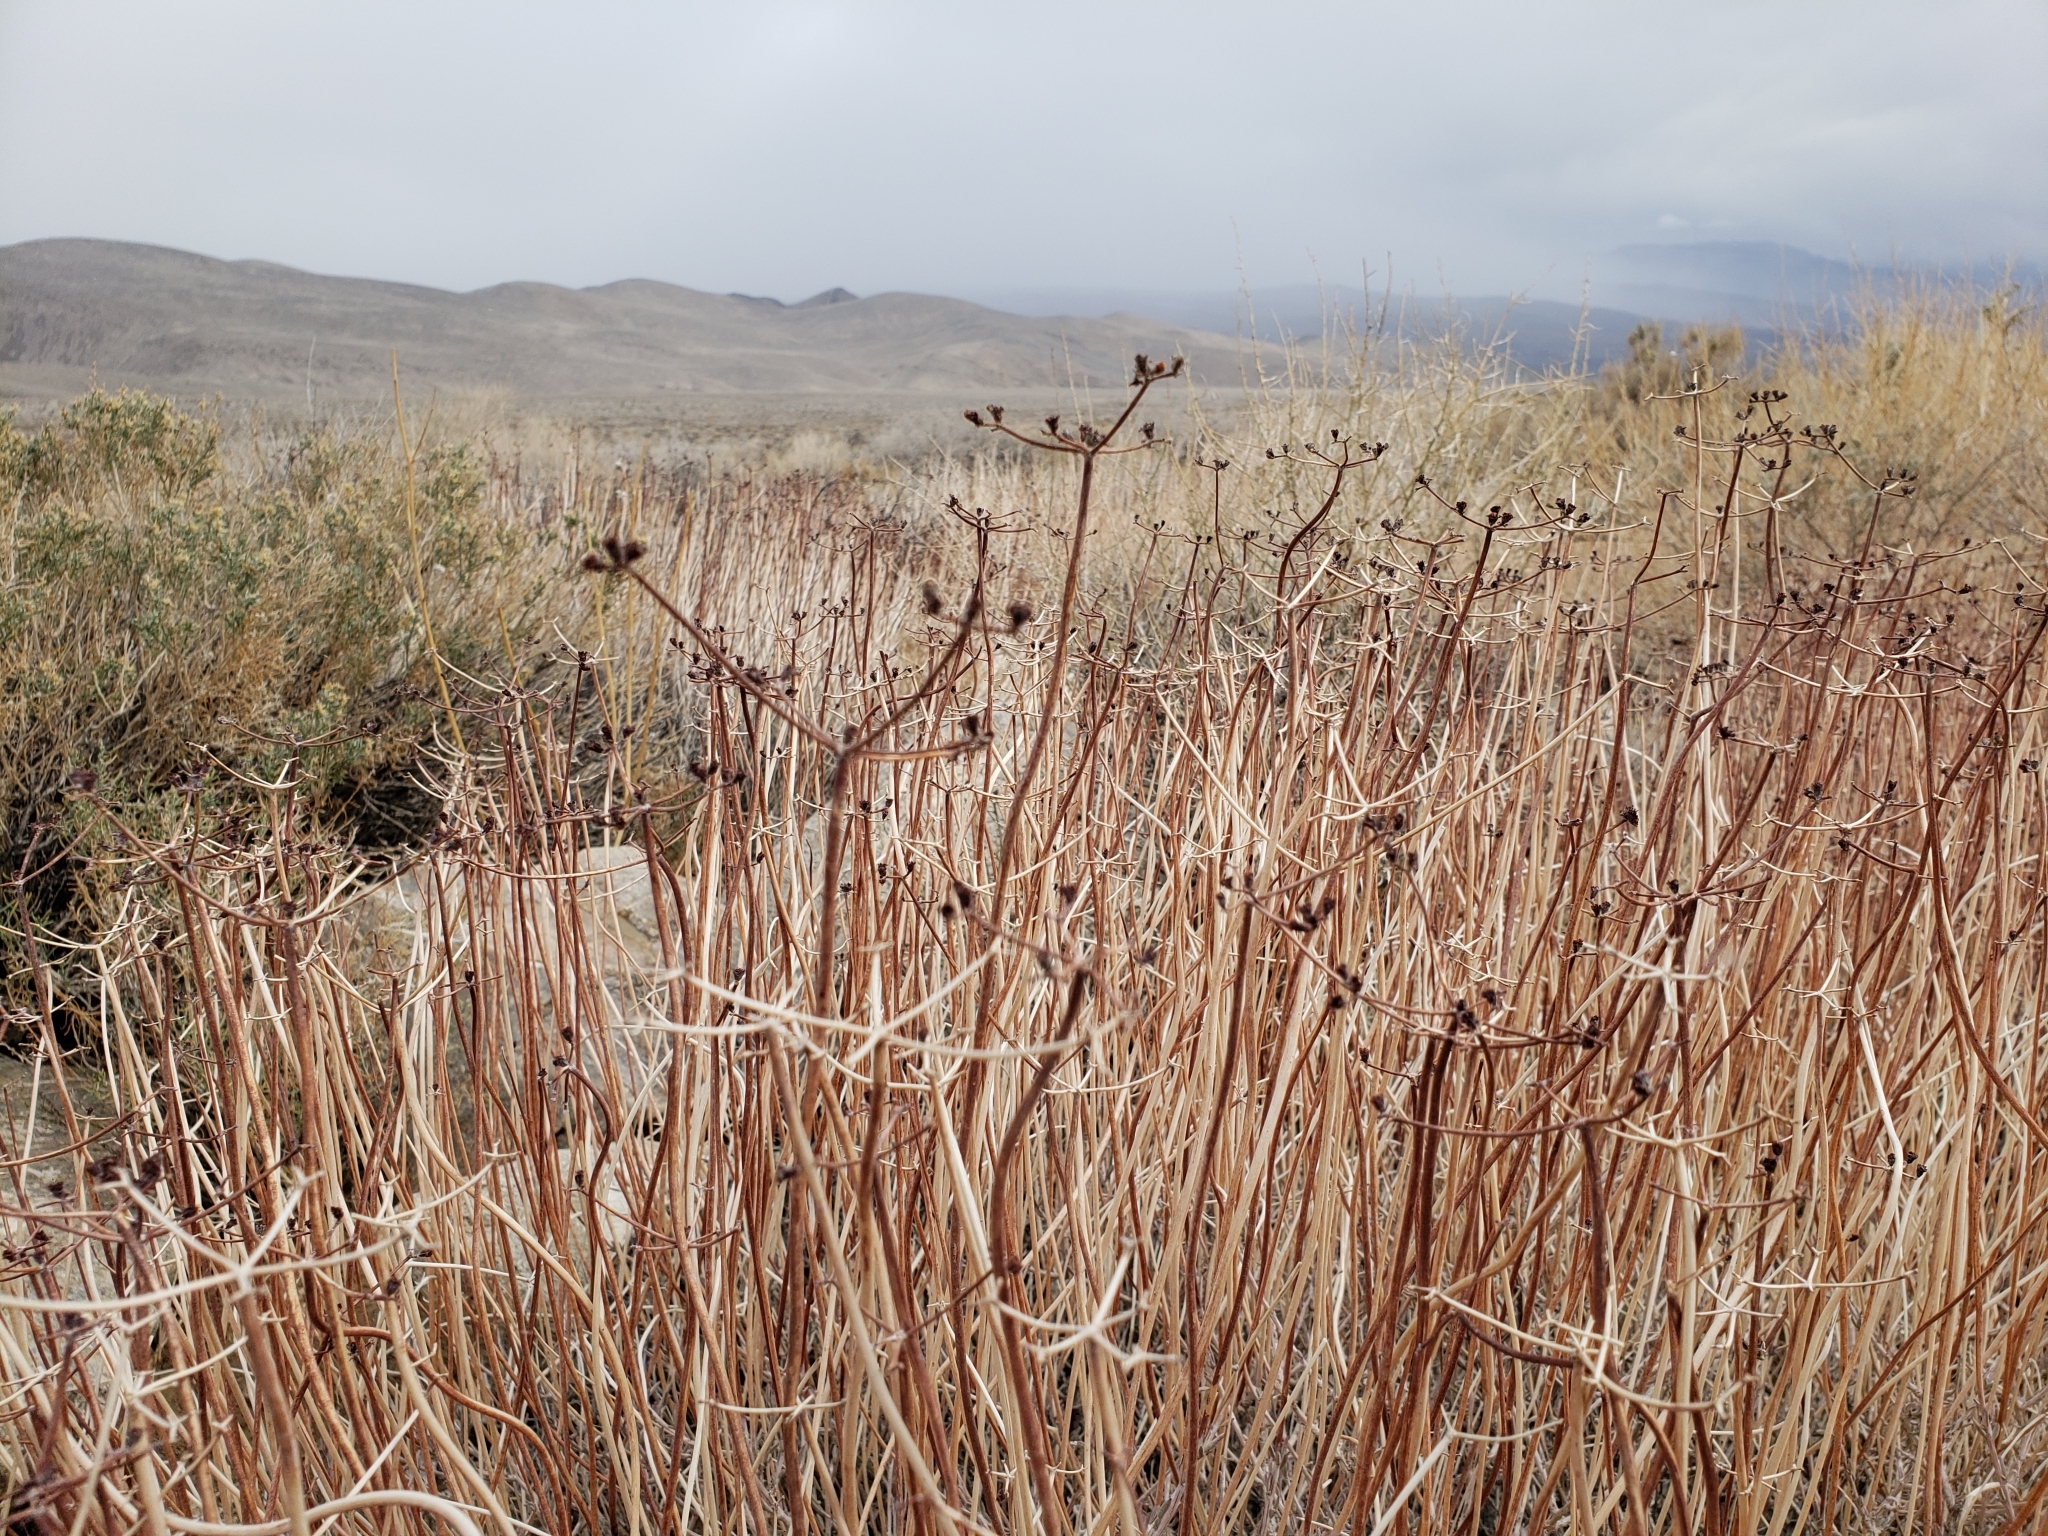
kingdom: Plantae
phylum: Tracheophyta
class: Magnoliopsida
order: Caryophyllales
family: Polygonaceae
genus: Eriogonum
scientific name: Eriogonum fasciculatum
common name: California wild buckwheat
